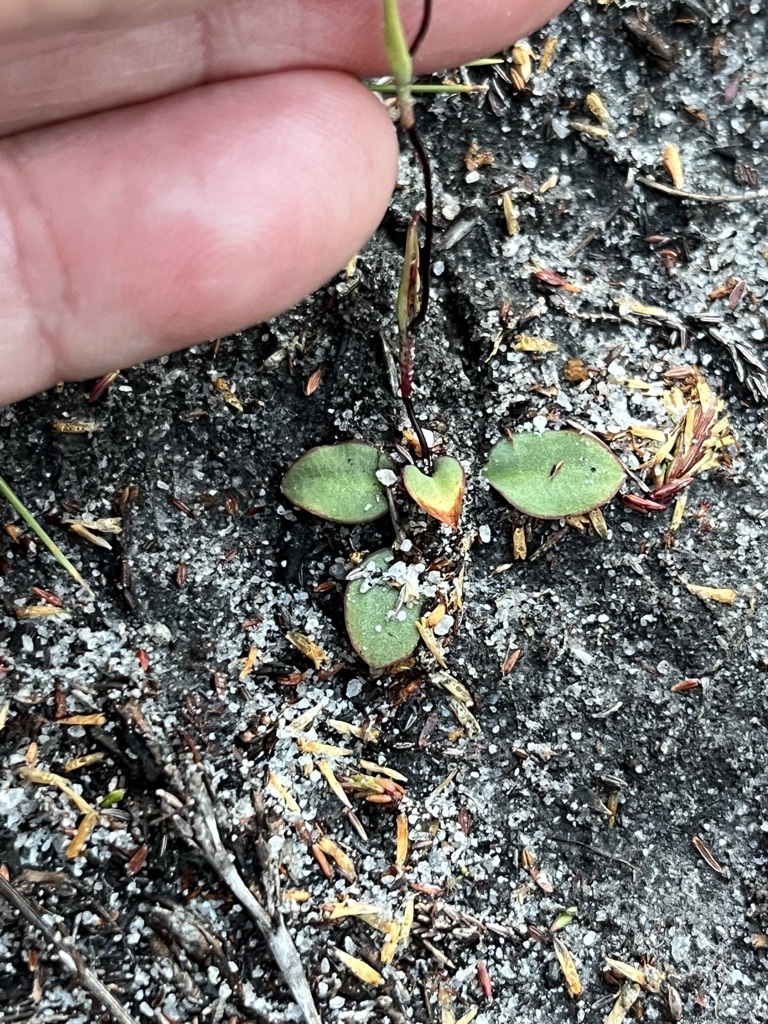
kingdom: Plantae
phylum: Tracheophyta
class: Liliopsida
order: Asparagales
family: Orchidaceae
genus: Disa
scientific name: Disa obliqua
